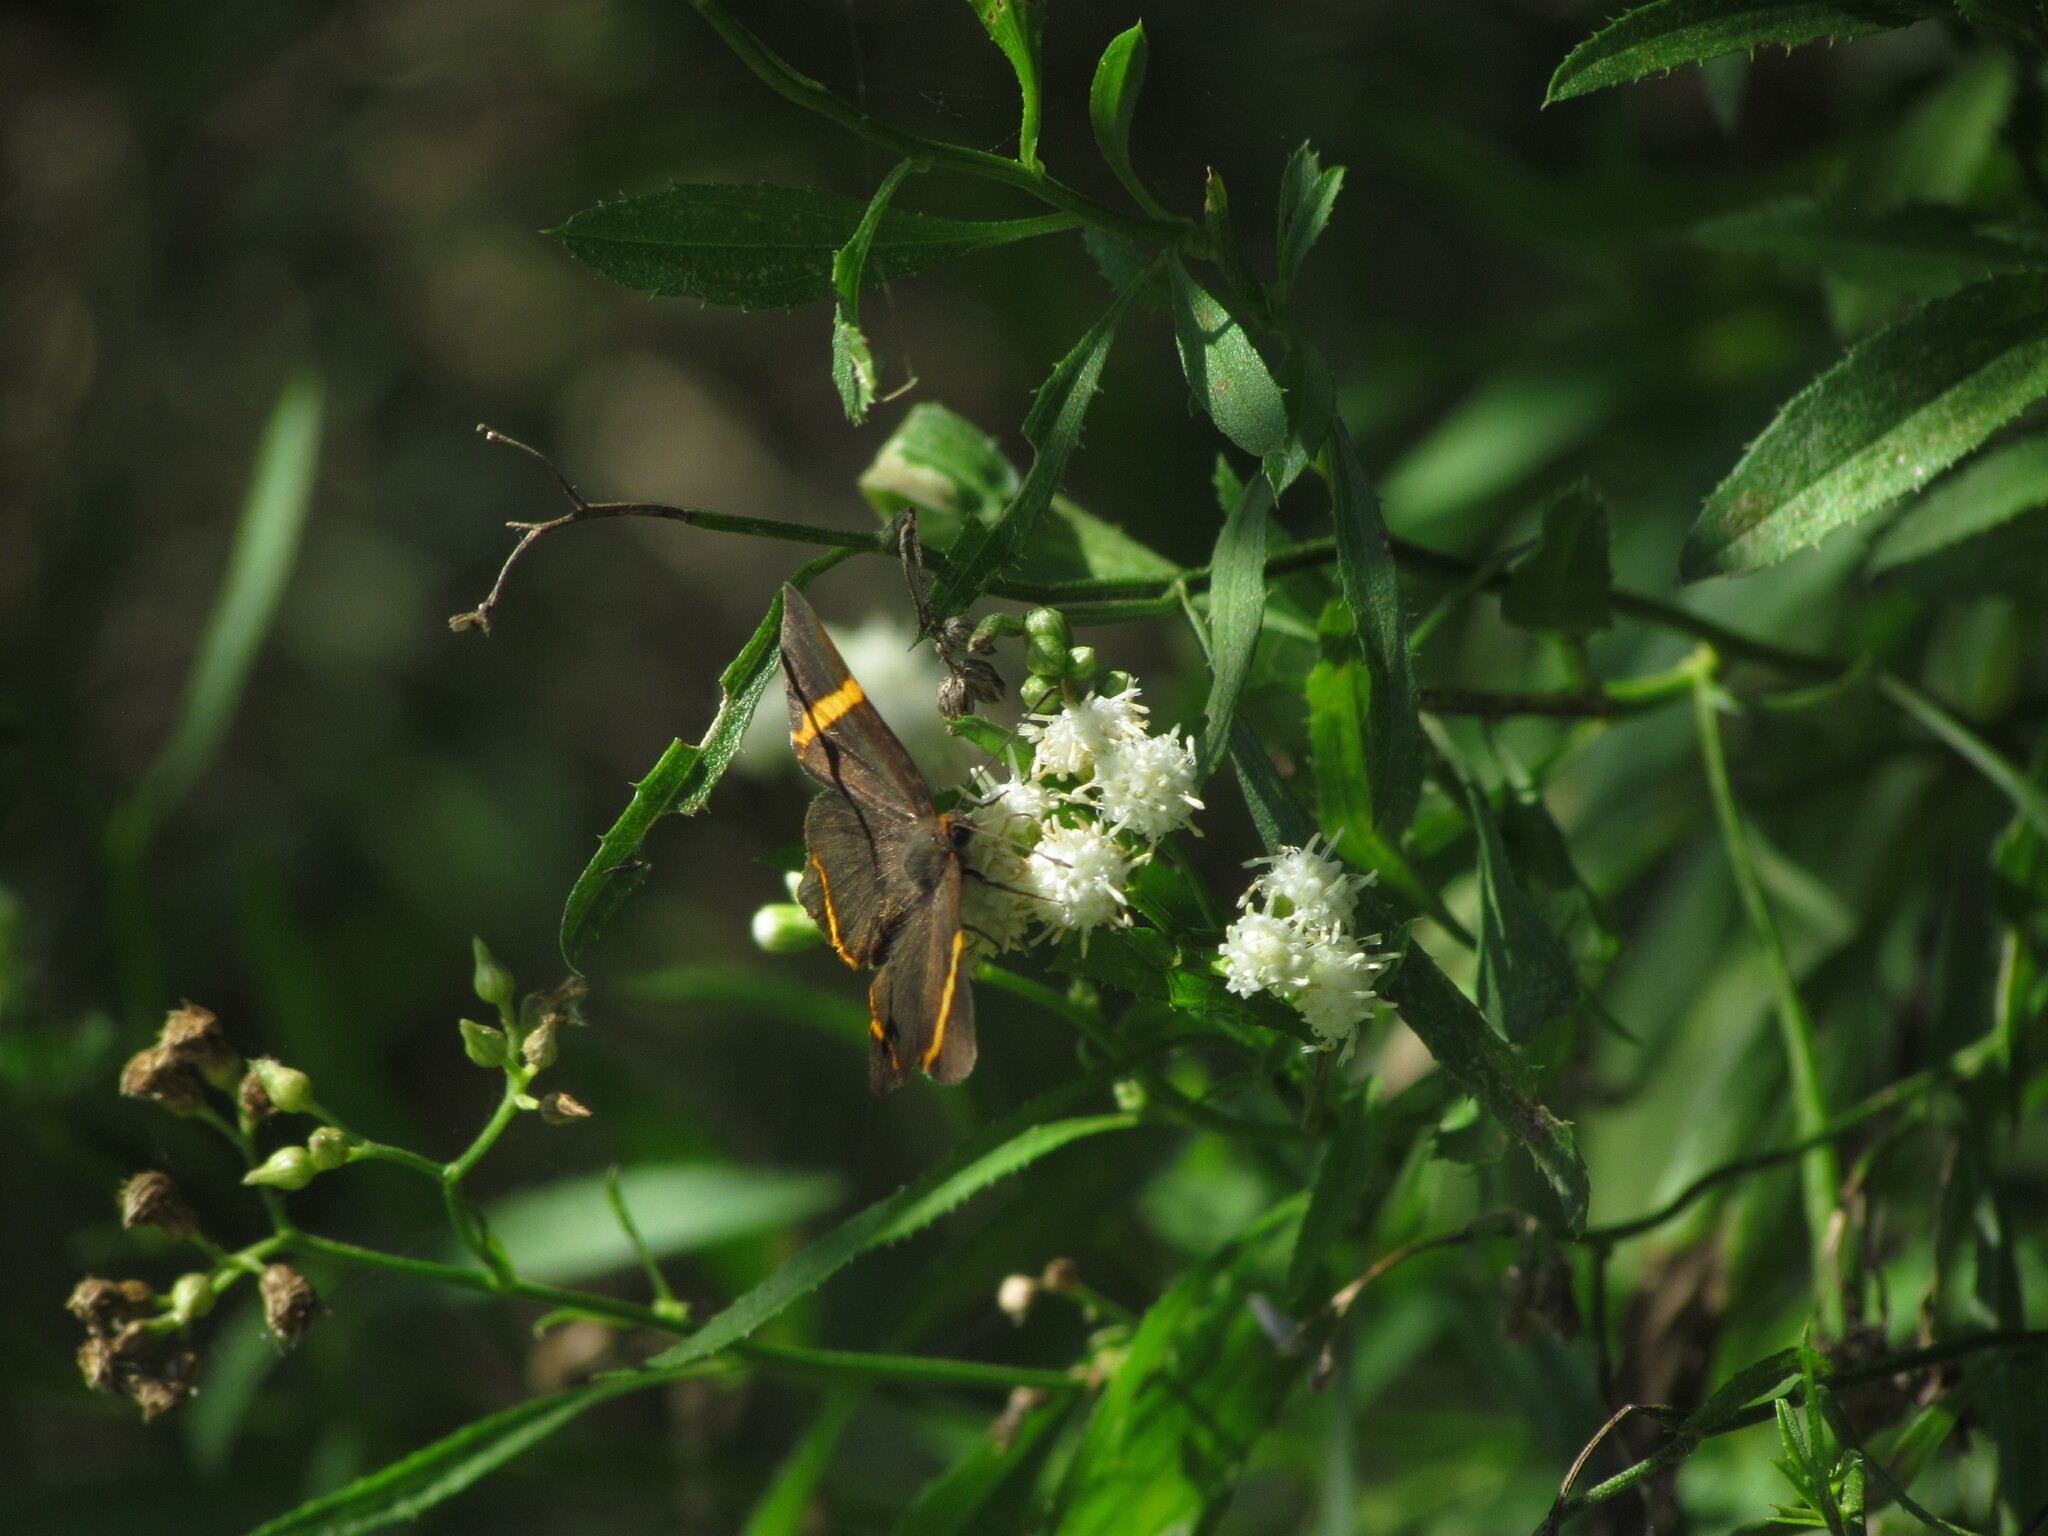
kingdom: Animalia
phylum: Arthropoda
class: Insecta
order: Lepidoptera
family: Riodinidae
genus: Riodina
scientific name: Riodina lysippoides
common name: Little dancer metalmark
